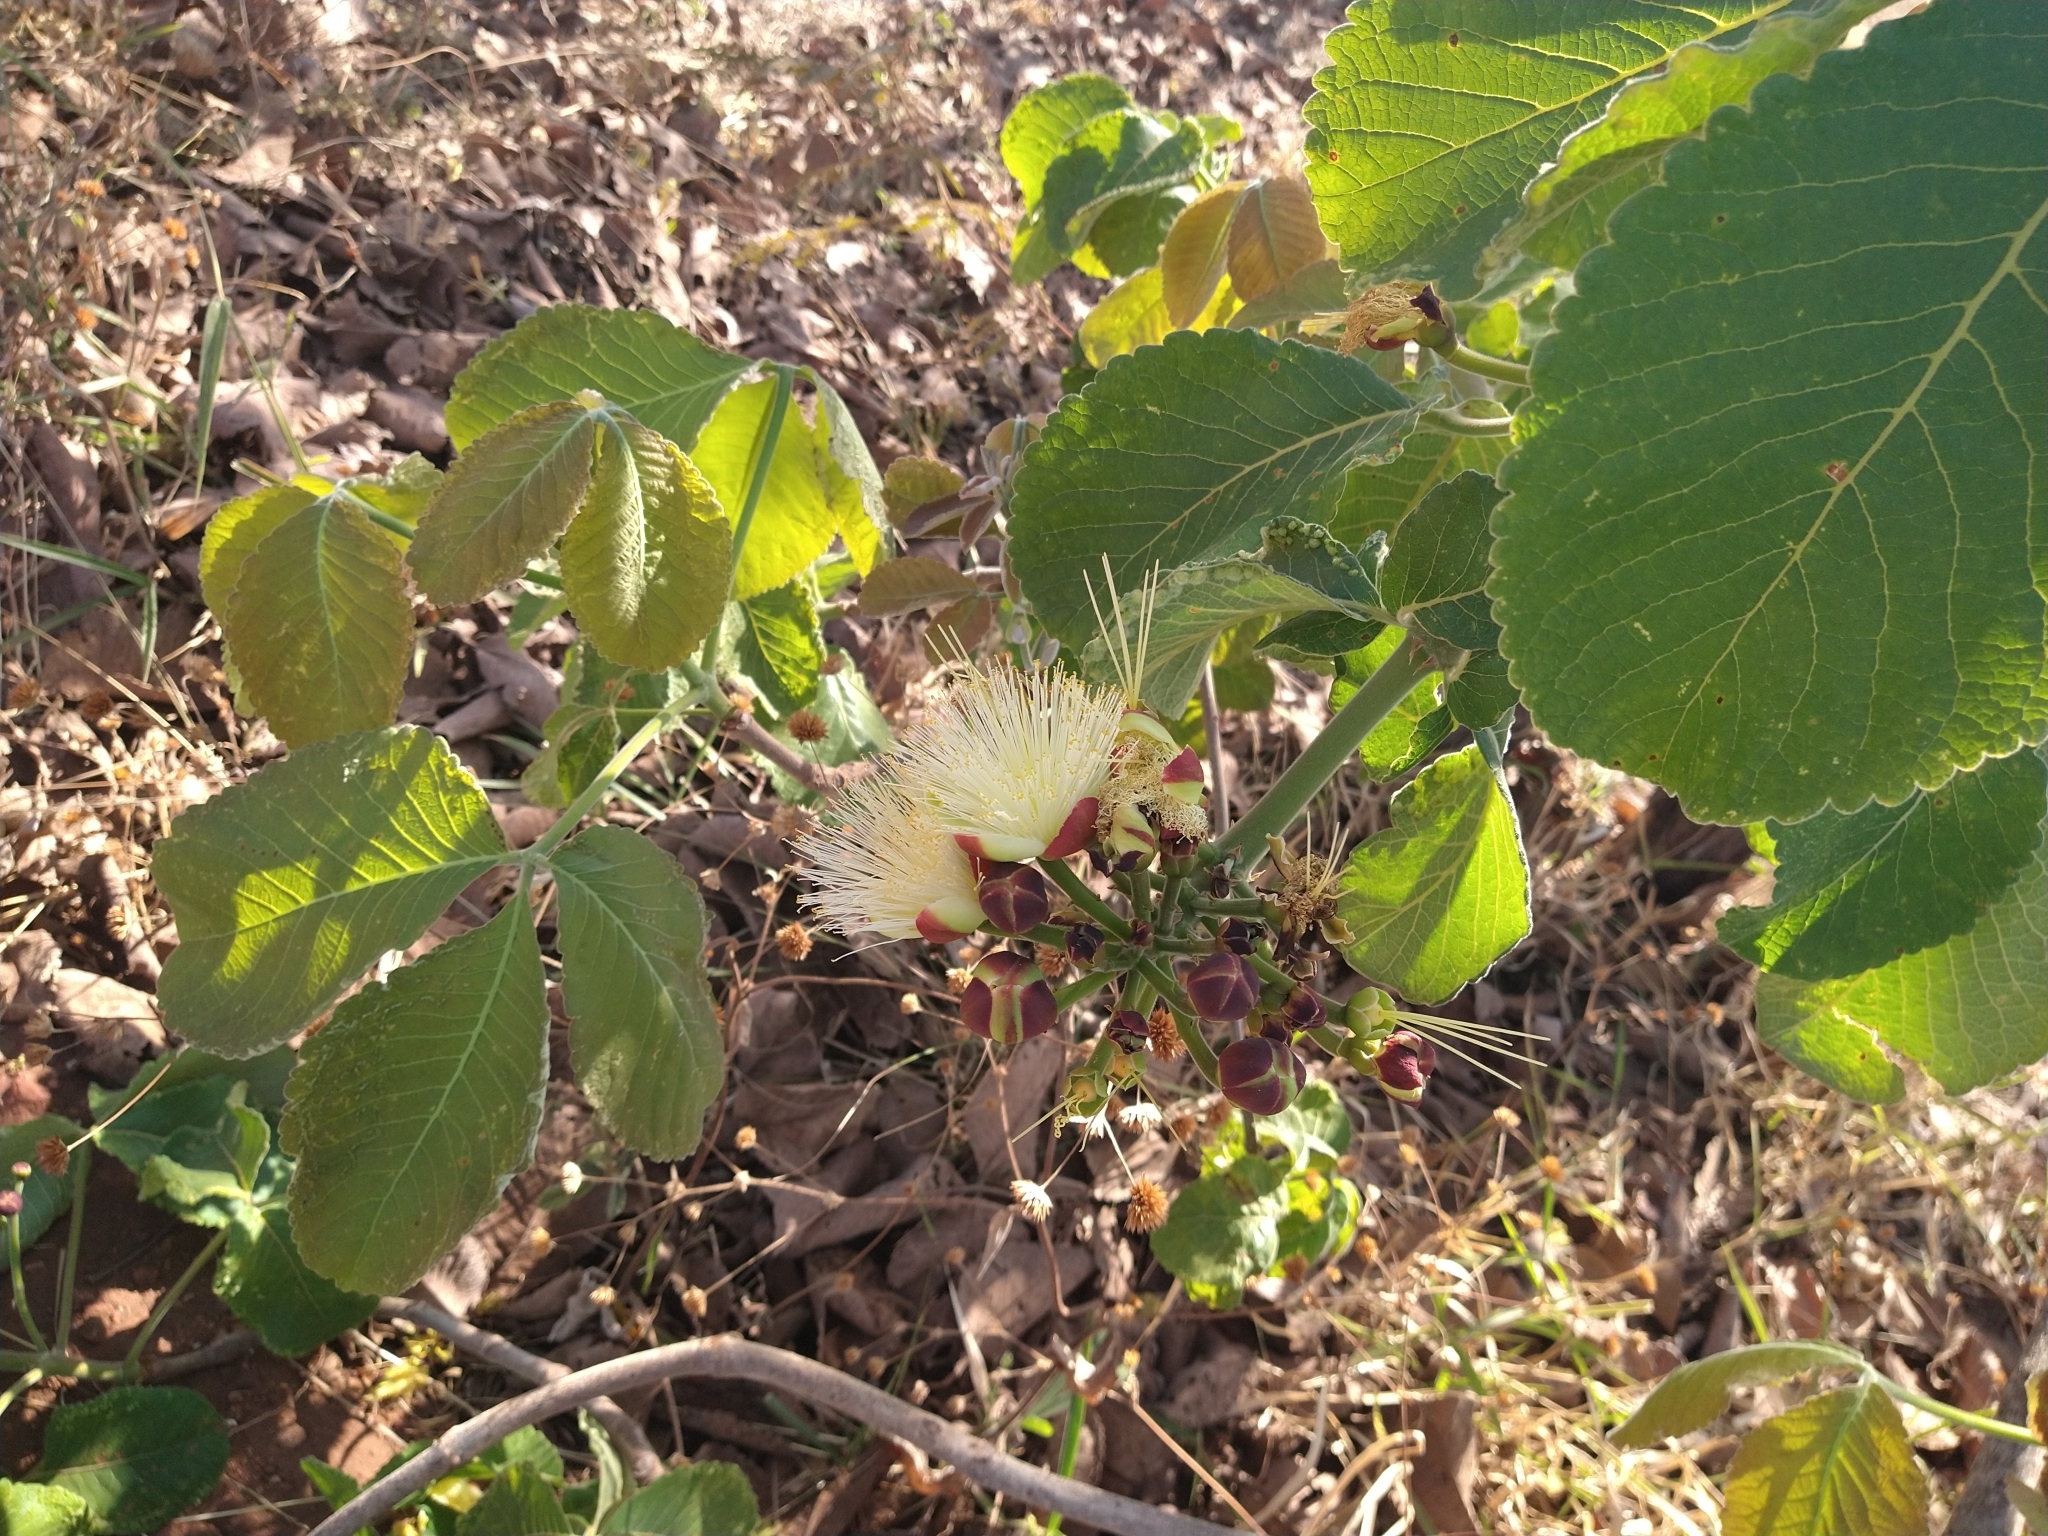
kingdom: Plantae
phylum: Tracheophyta
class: Magnoliopsida
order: Malpighiales
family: Caryocaraceae
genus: Caryocar
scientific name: Caryocar brasiliense
